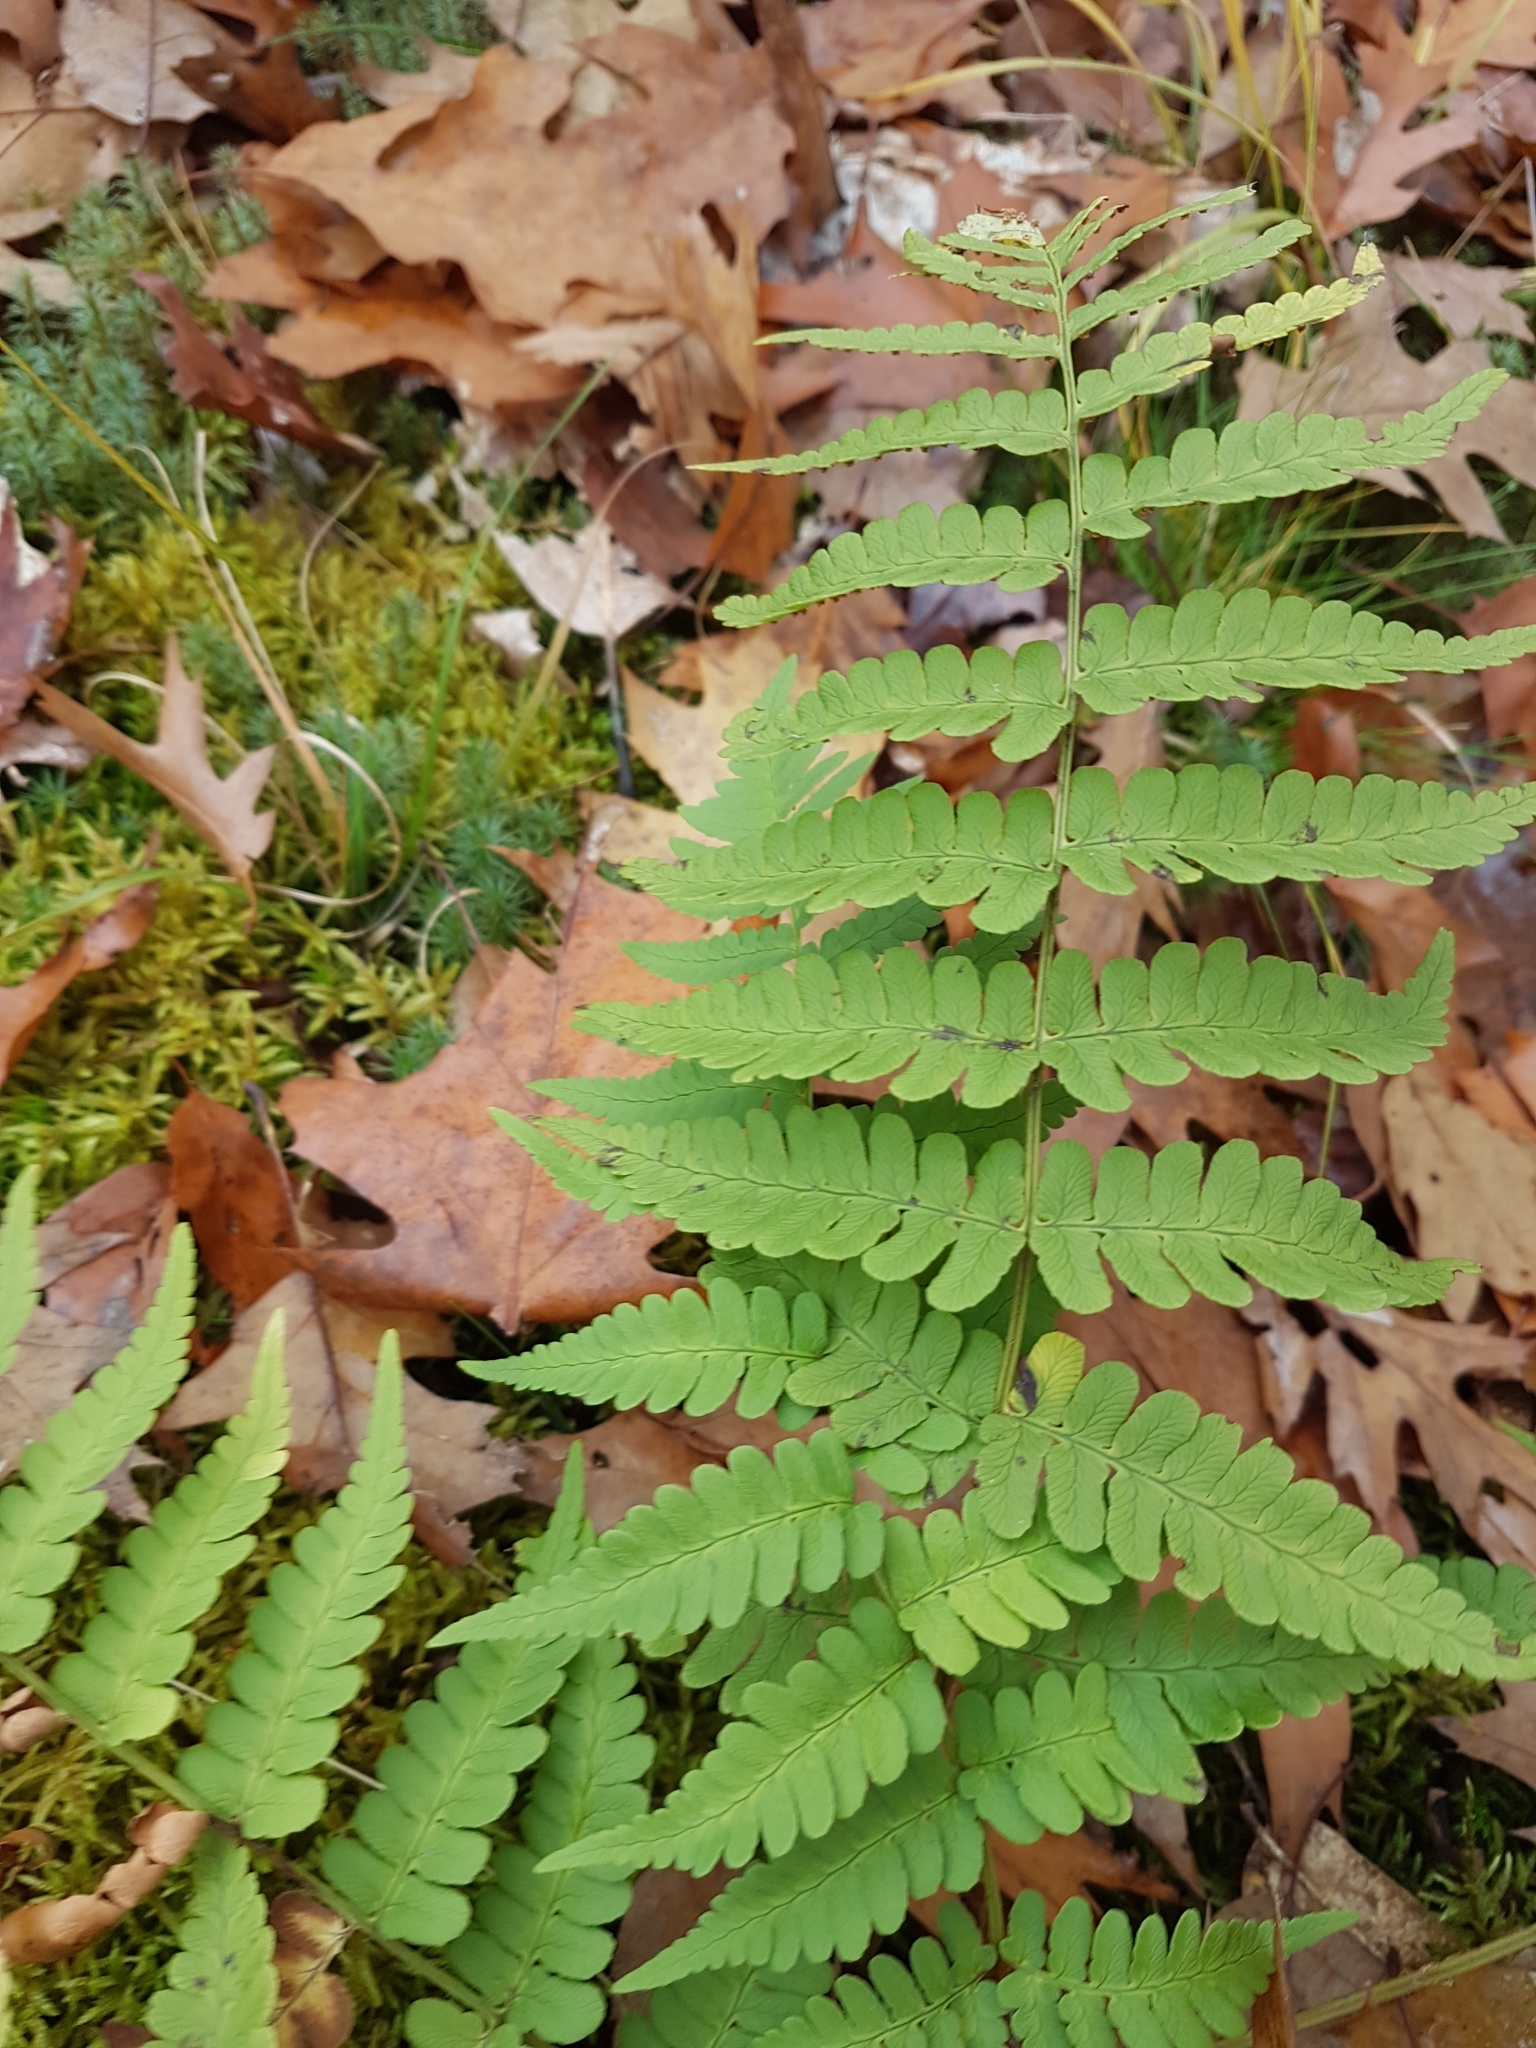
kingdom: Plantae
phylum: Tracheophyta
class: Polypodiopsida
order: Polypodiales
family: Dryopteridaceae
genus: Dryopteris
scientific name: Dryopteris marginalis
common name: Marginal wood fern
